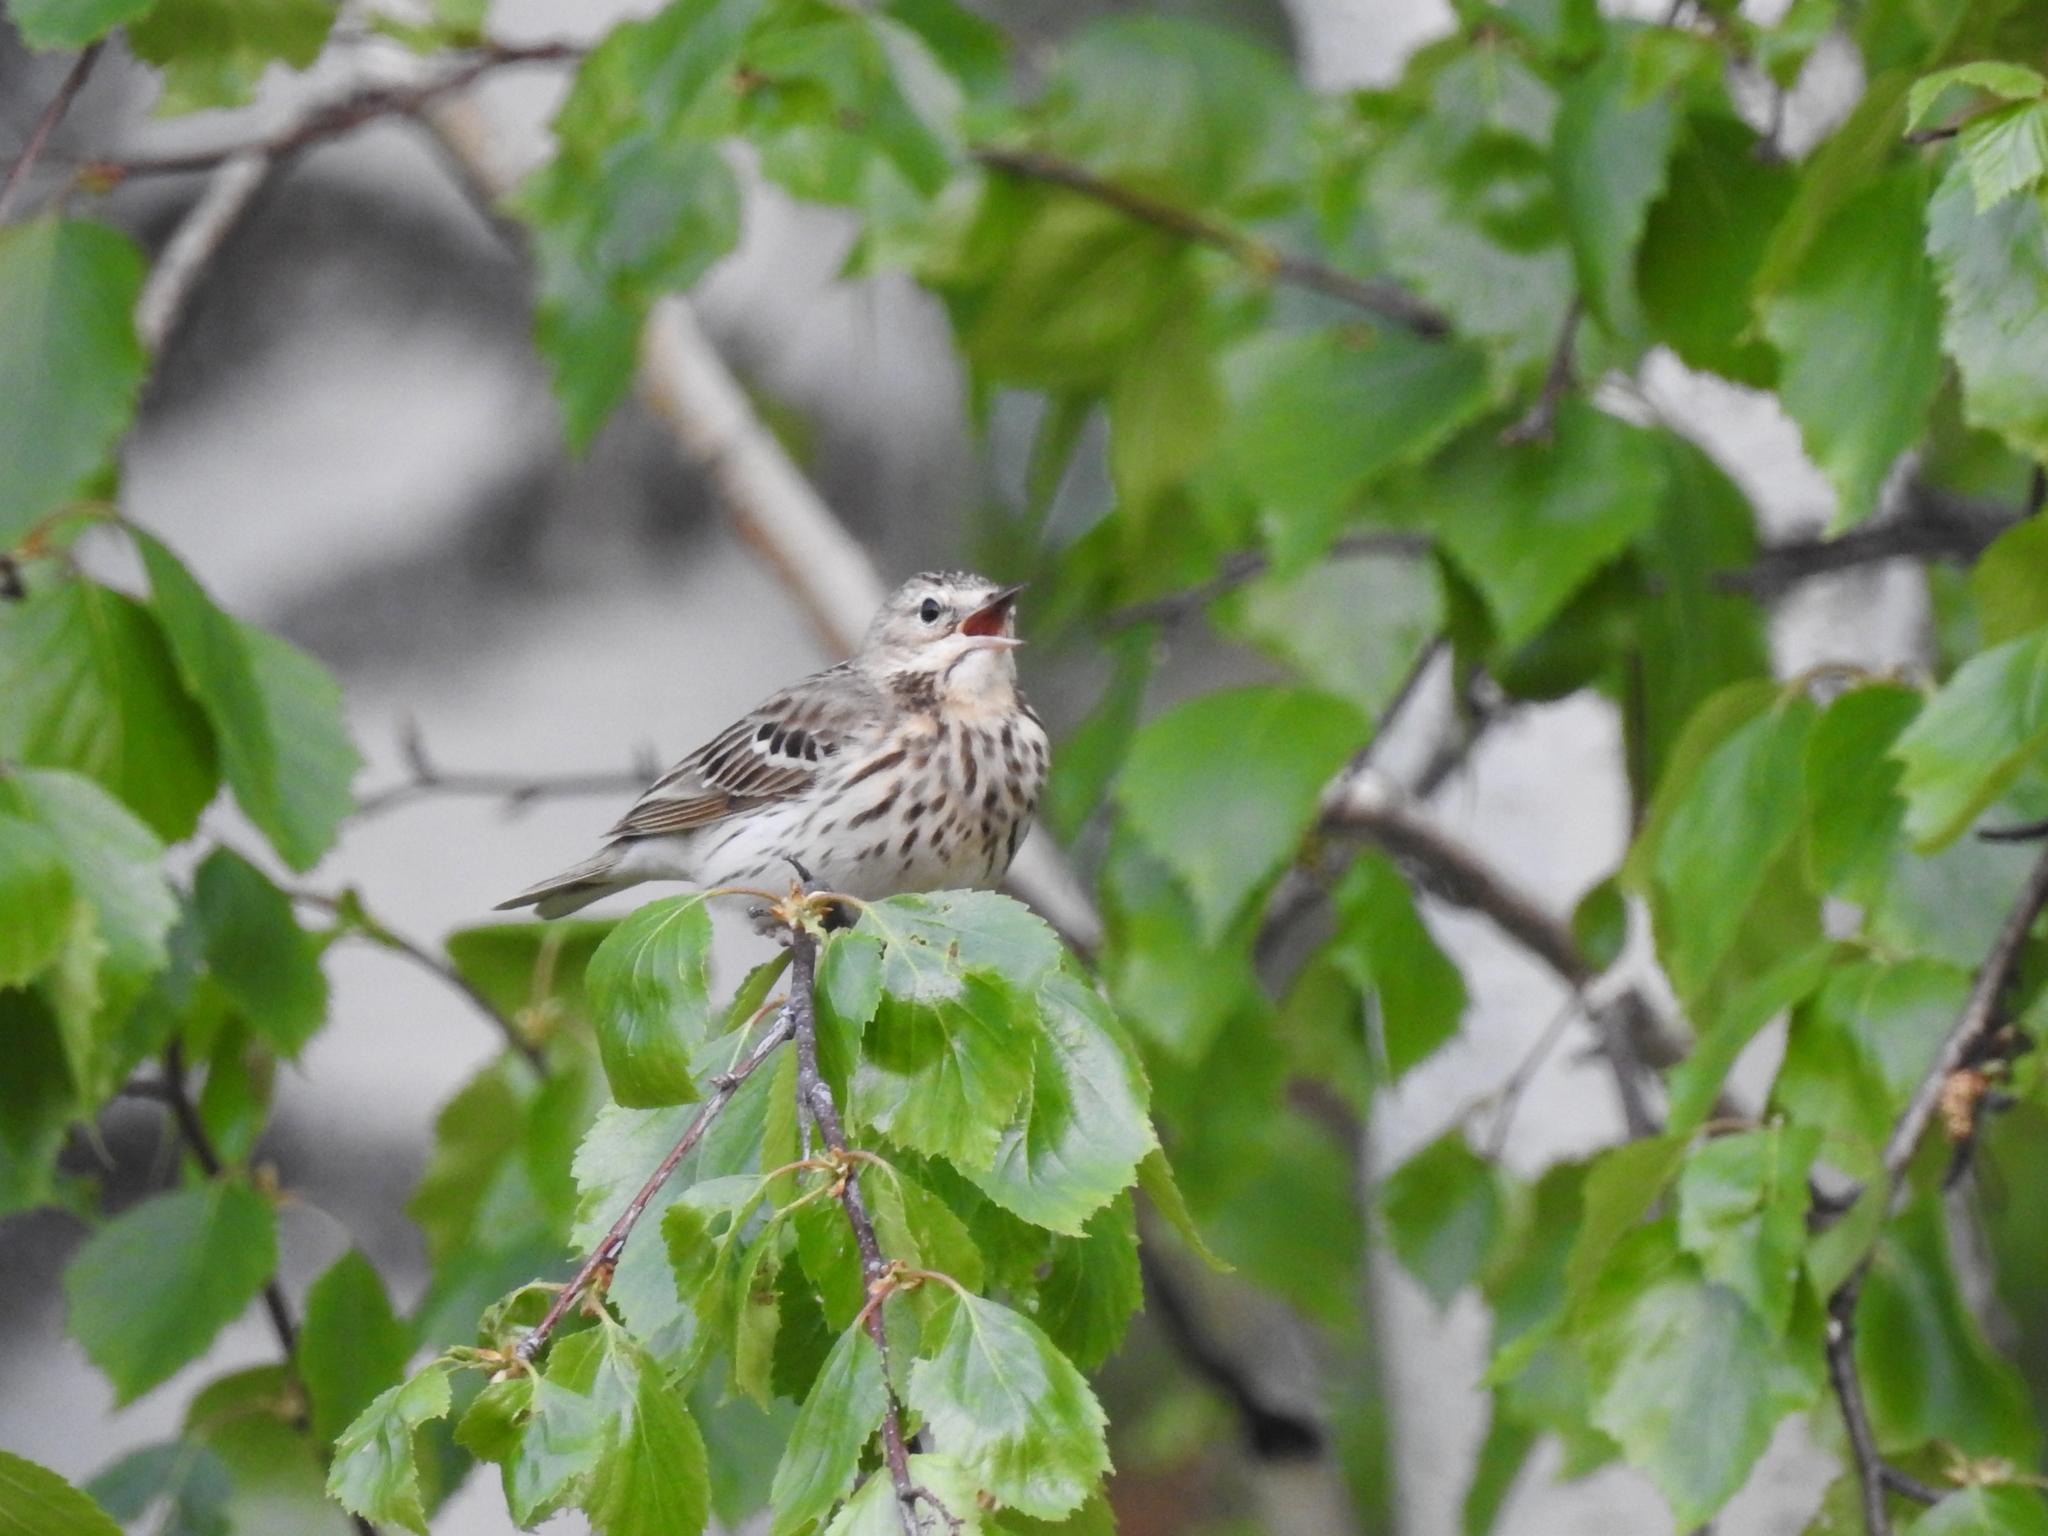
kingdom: Animalia
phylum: Chordata
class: Aves
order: Passeriformes
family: Motacillidae
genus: Anthus
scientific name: Anthus trivialis
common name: Tree pipit
